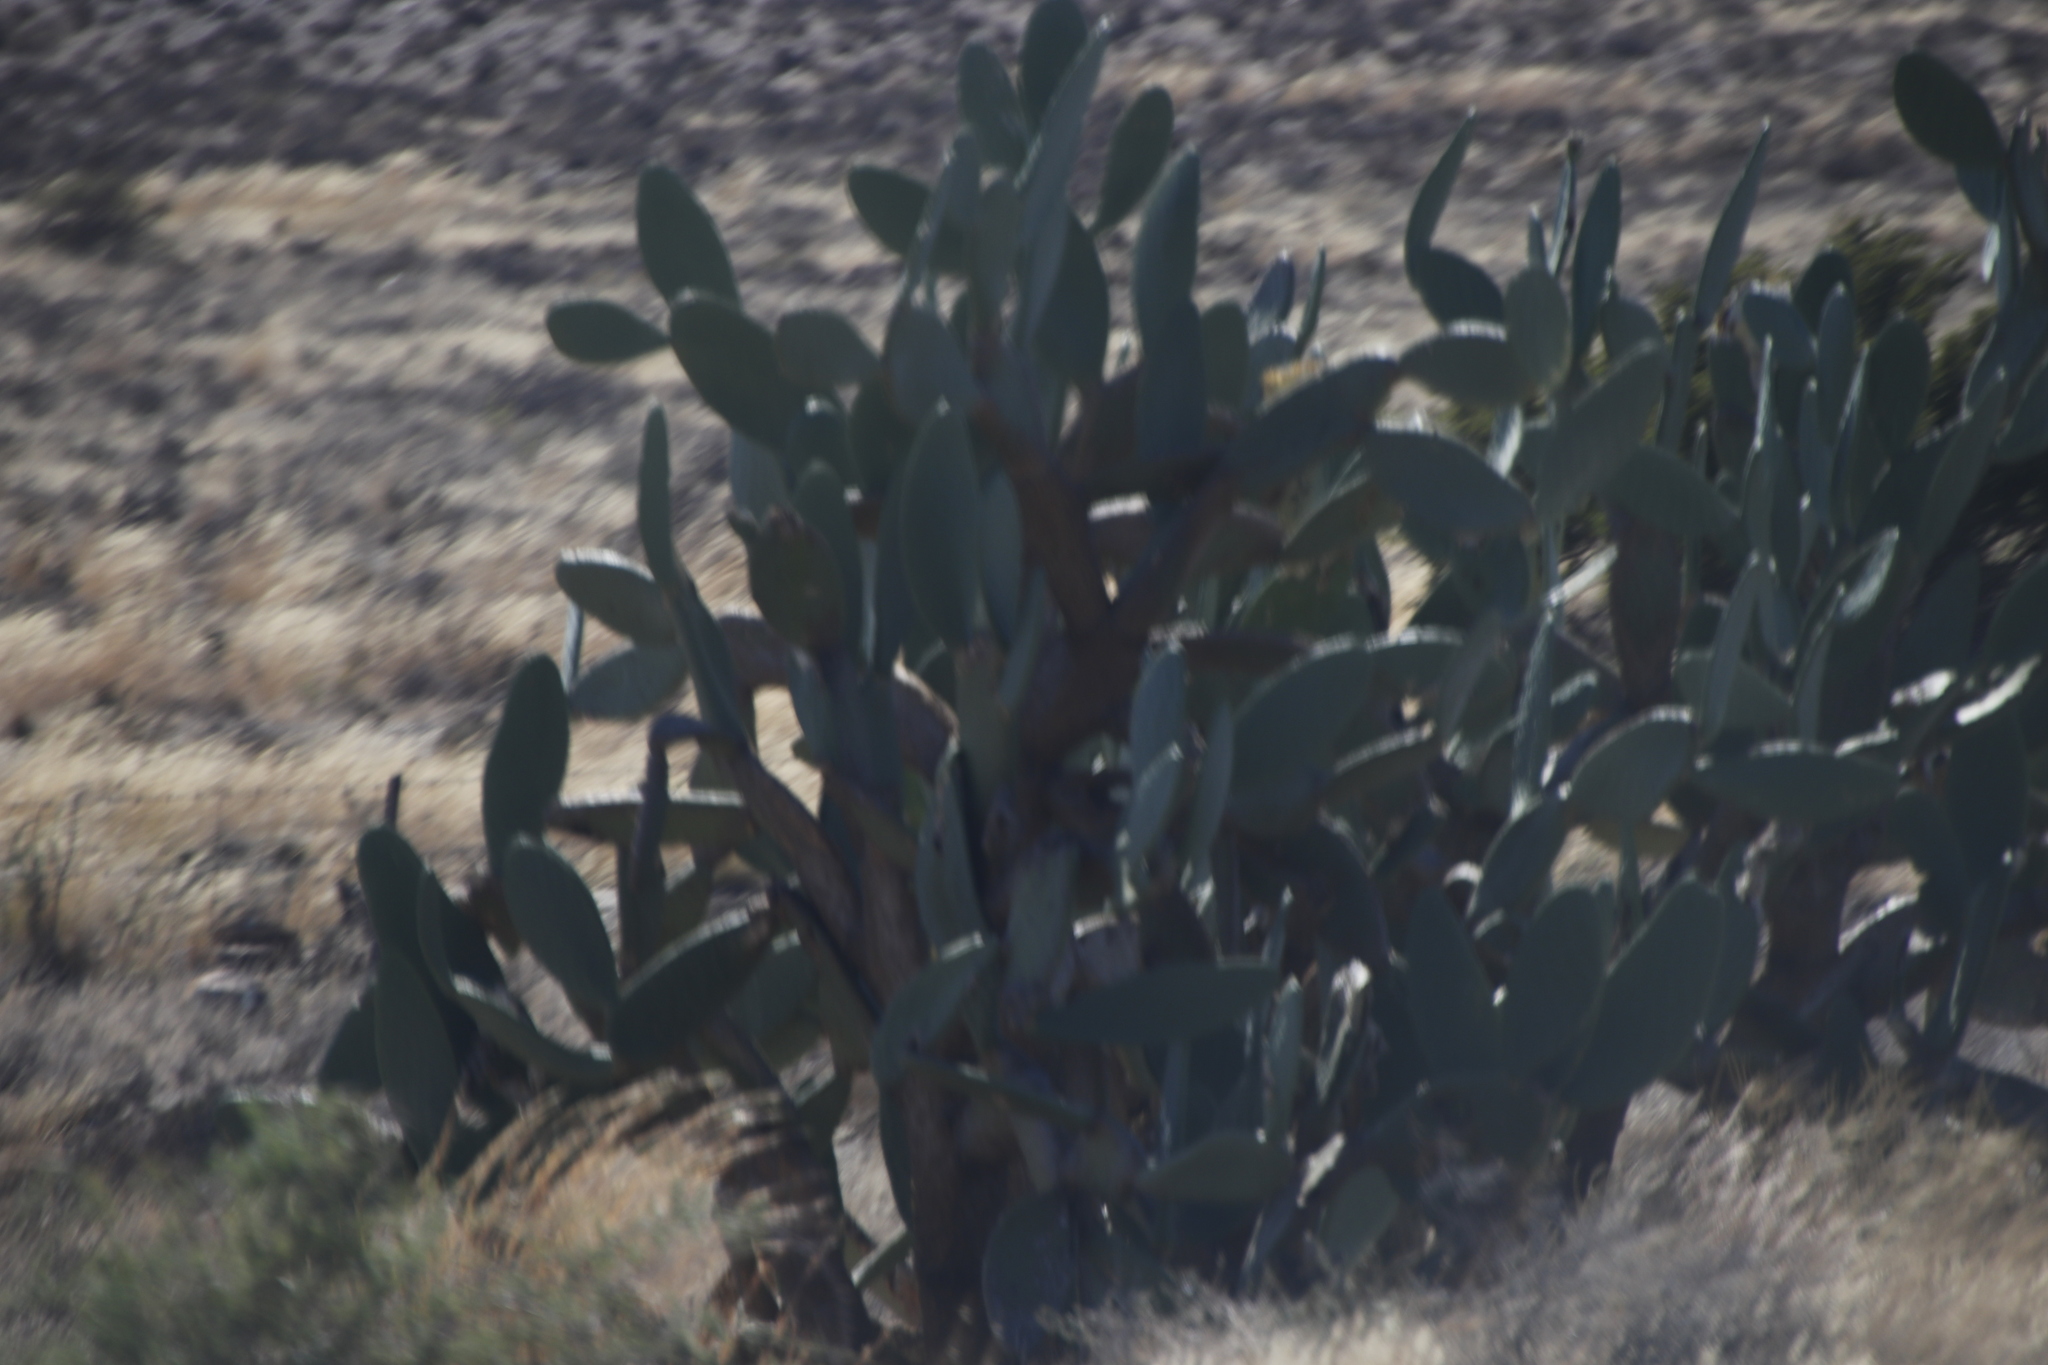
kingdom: Plantae
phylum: Tracheophyta
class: Magnoliopsida
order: Caryophyllales
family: Cactaceae
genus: Opuntia
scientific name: Opuntia ficus-indica
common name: Barbary fig
